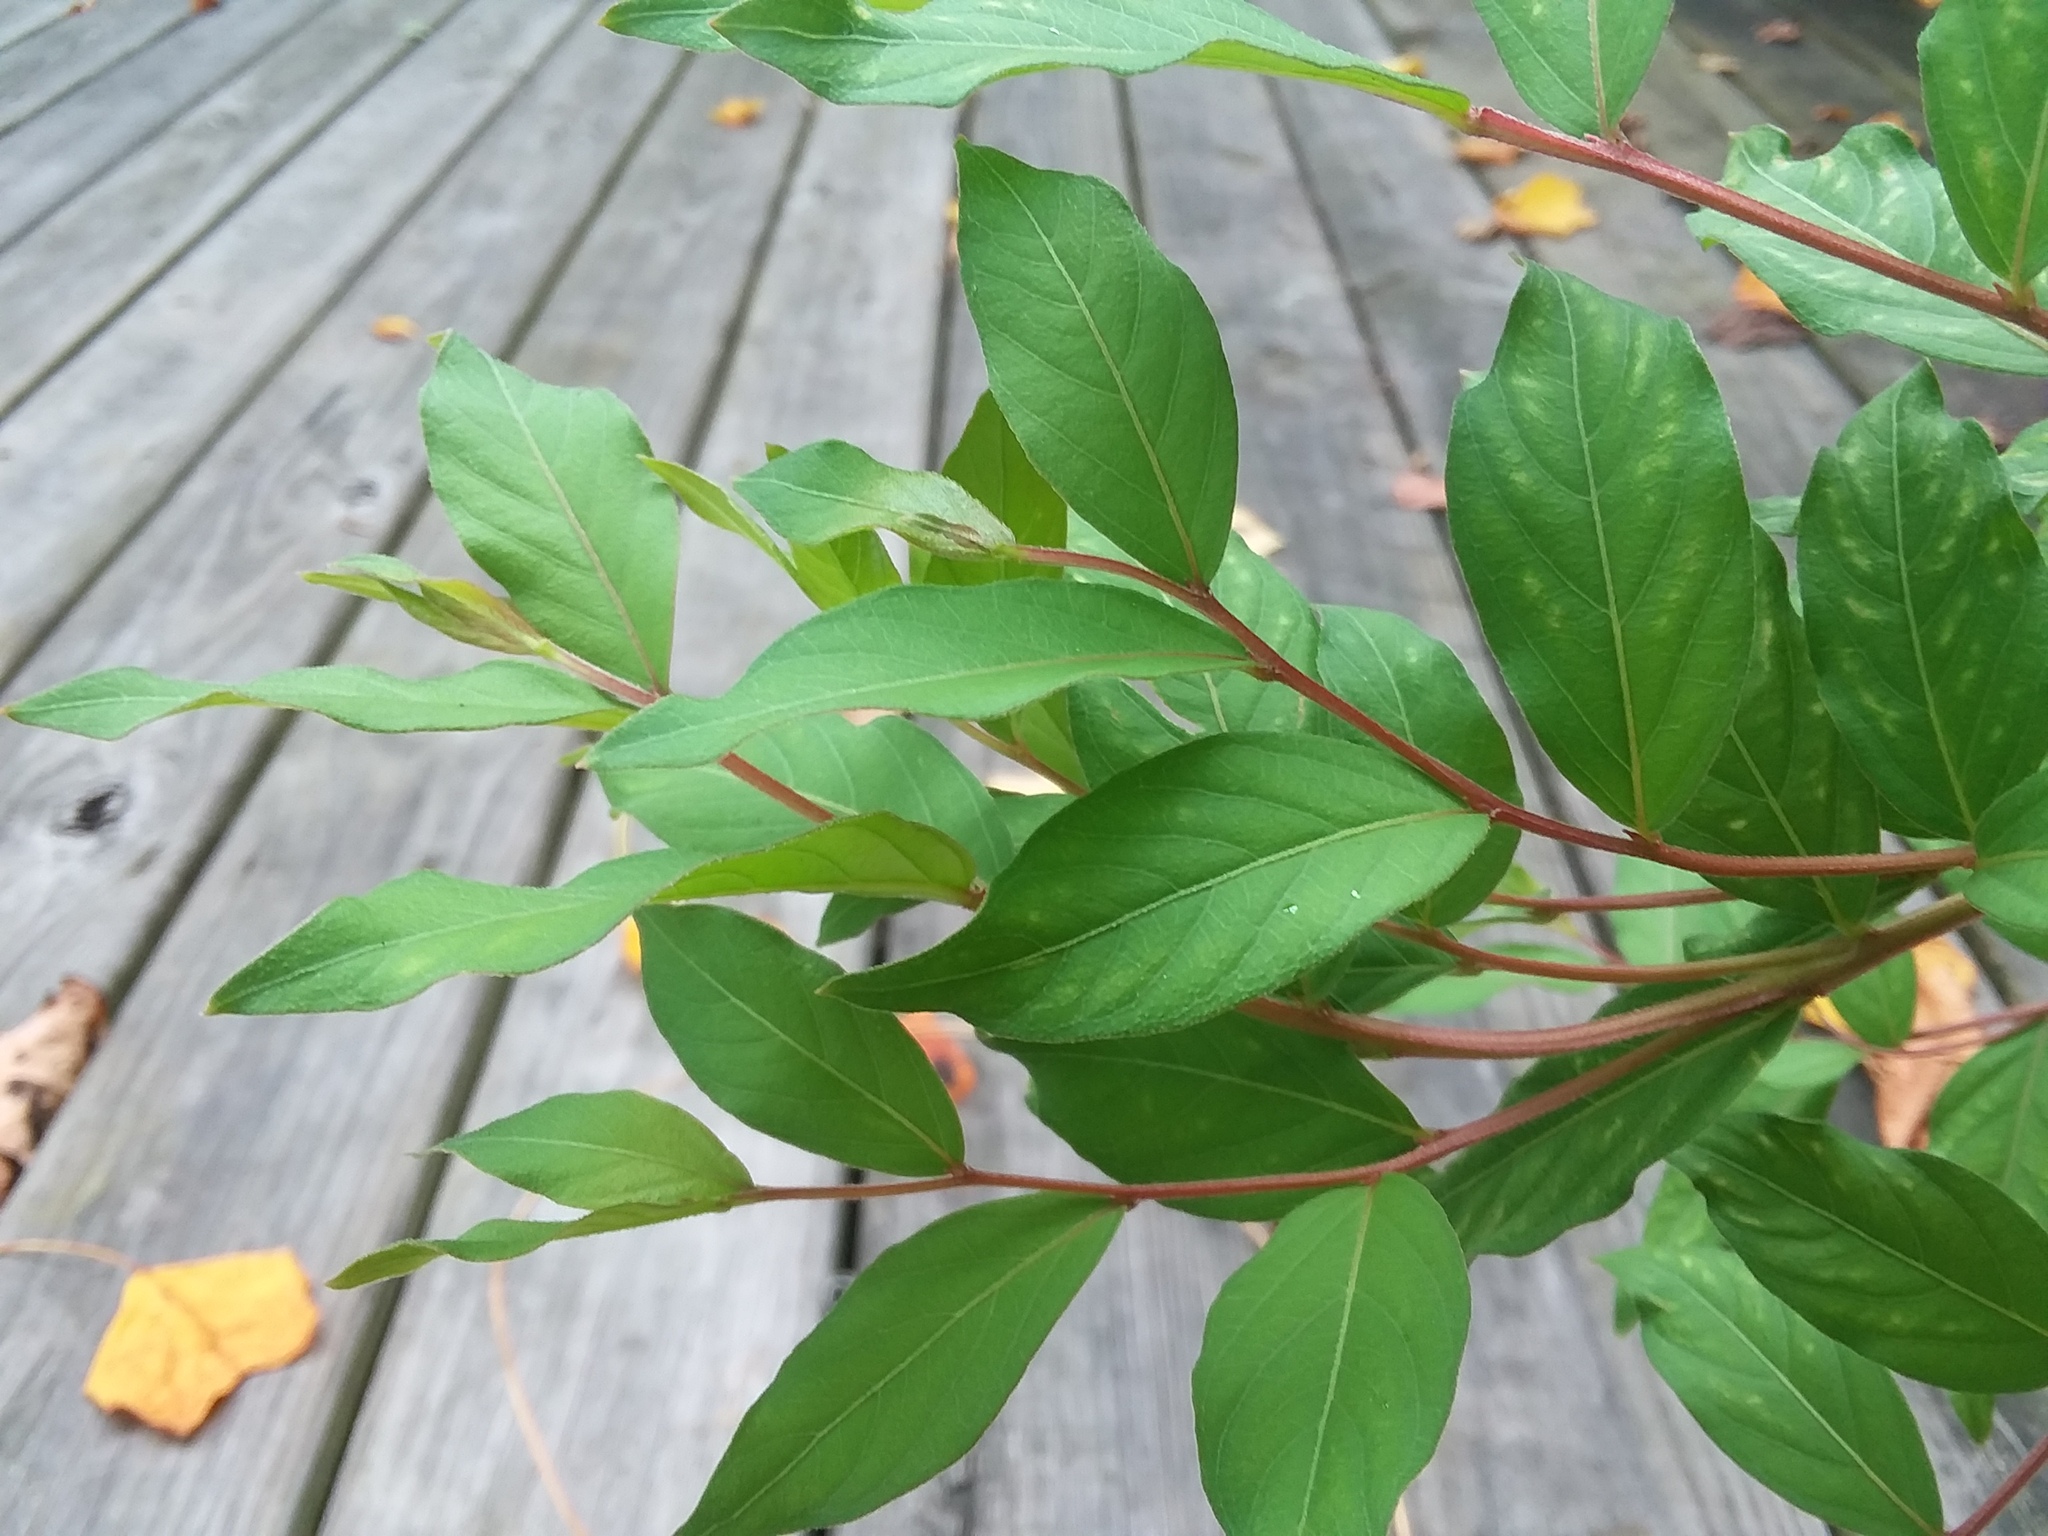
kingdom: Plantae
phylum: Tracheophyta
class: Magnoliopsida
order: Myrtales
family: Lythraceae
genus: Lagerstroemia
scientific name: Lagerstroemia indica
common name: Crape-myrtle
